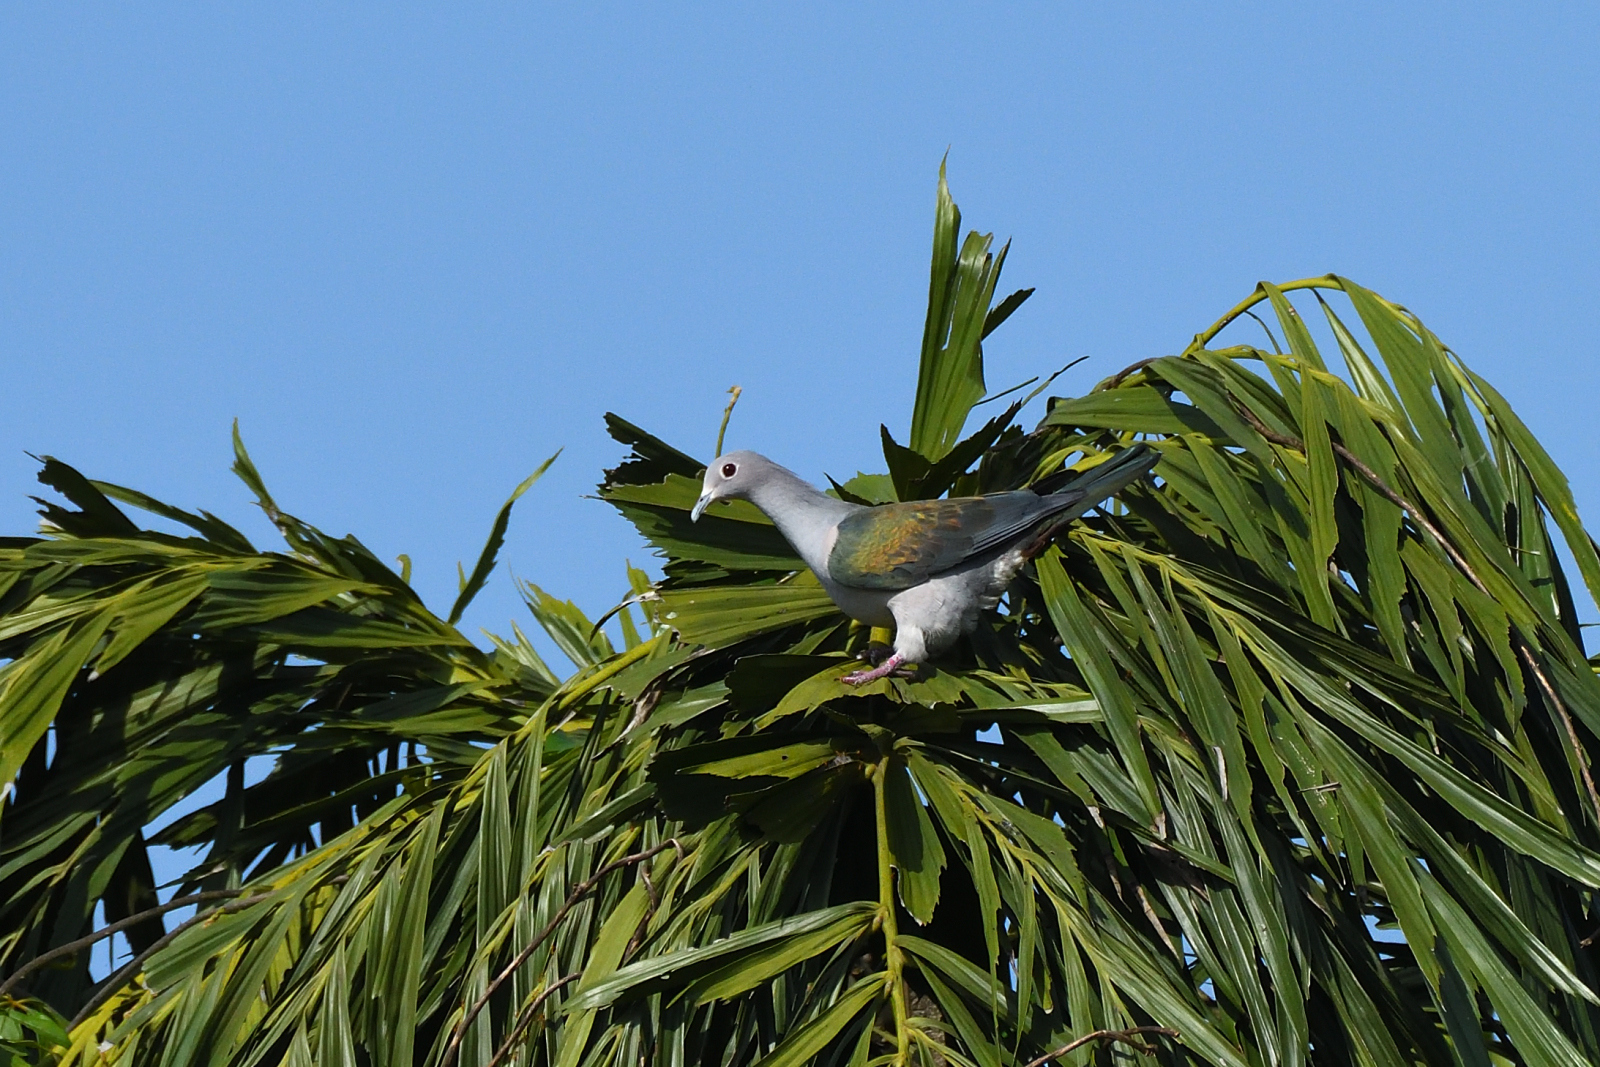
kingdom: Animalia
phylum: Chordata
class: Aves
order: Columbiformes
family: Columbidae
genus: Ducula
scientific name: Ducula aenea
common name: Green imperial pigeon
